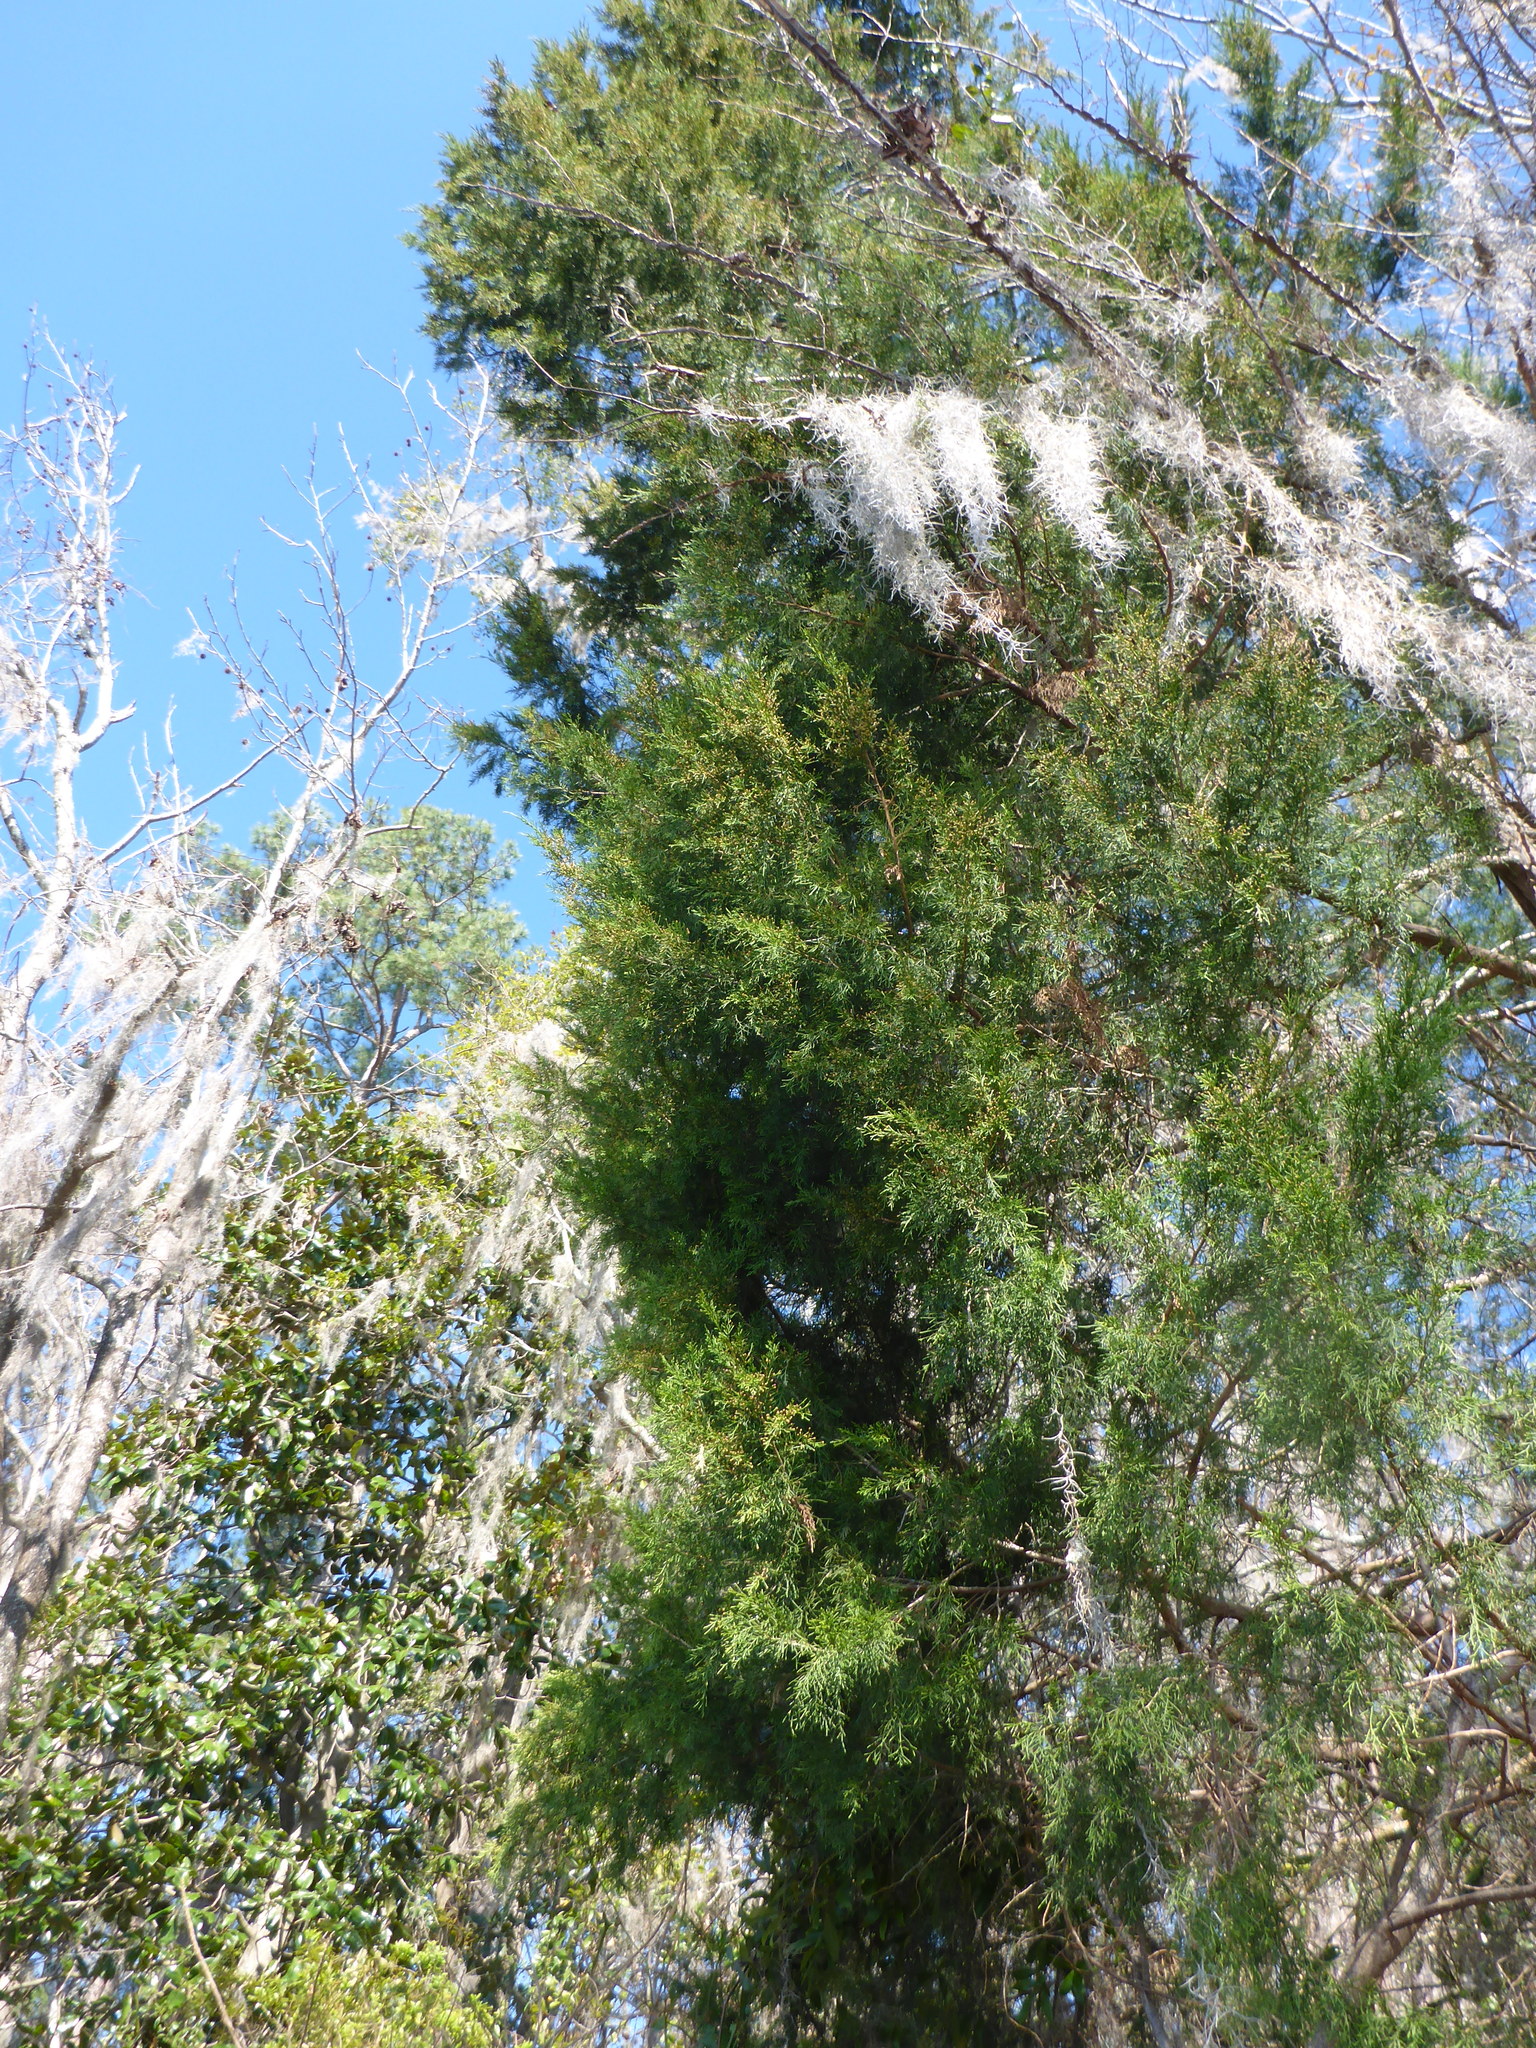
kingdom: Plantae
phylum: Tracheophyta
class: Pinopsida
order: Pinales
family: Cupressaceae
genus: Juniperus
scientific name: Juniperus virginiana
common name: Red juniper
